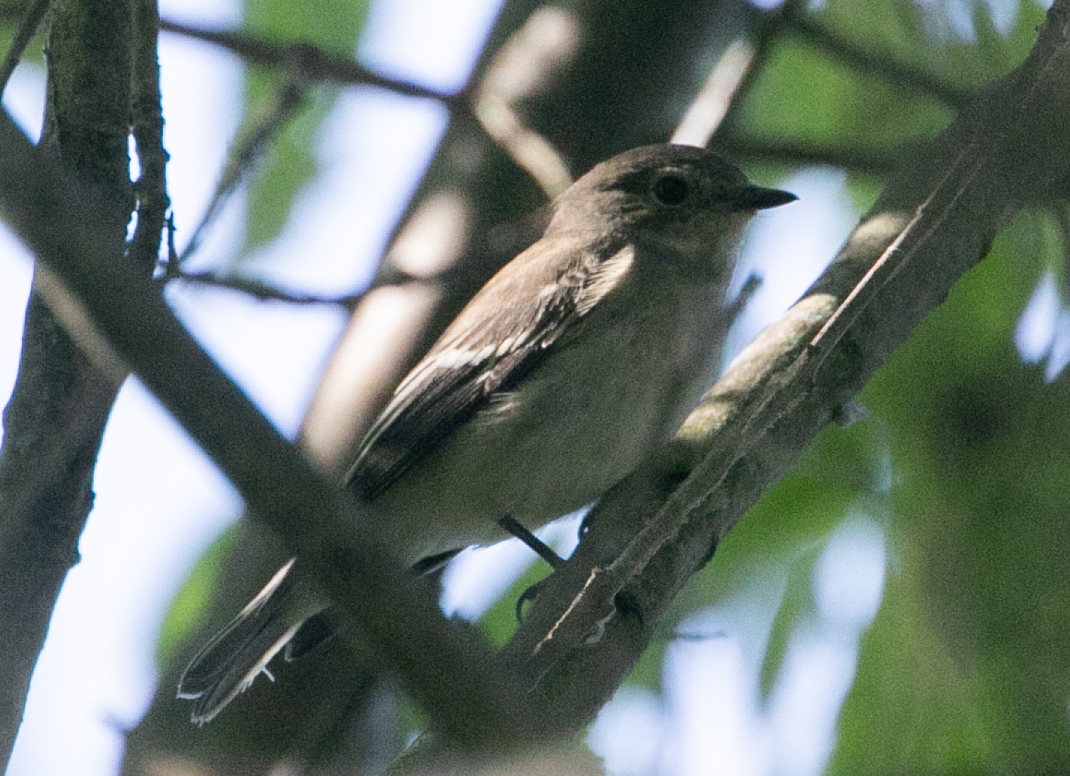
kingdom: Animalia
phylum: Chordata
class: Aves
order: Passeriformes
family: Muscicapidae
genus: Ficedula
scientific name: Ficedula hypoleuca
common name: European pied flycatcher
